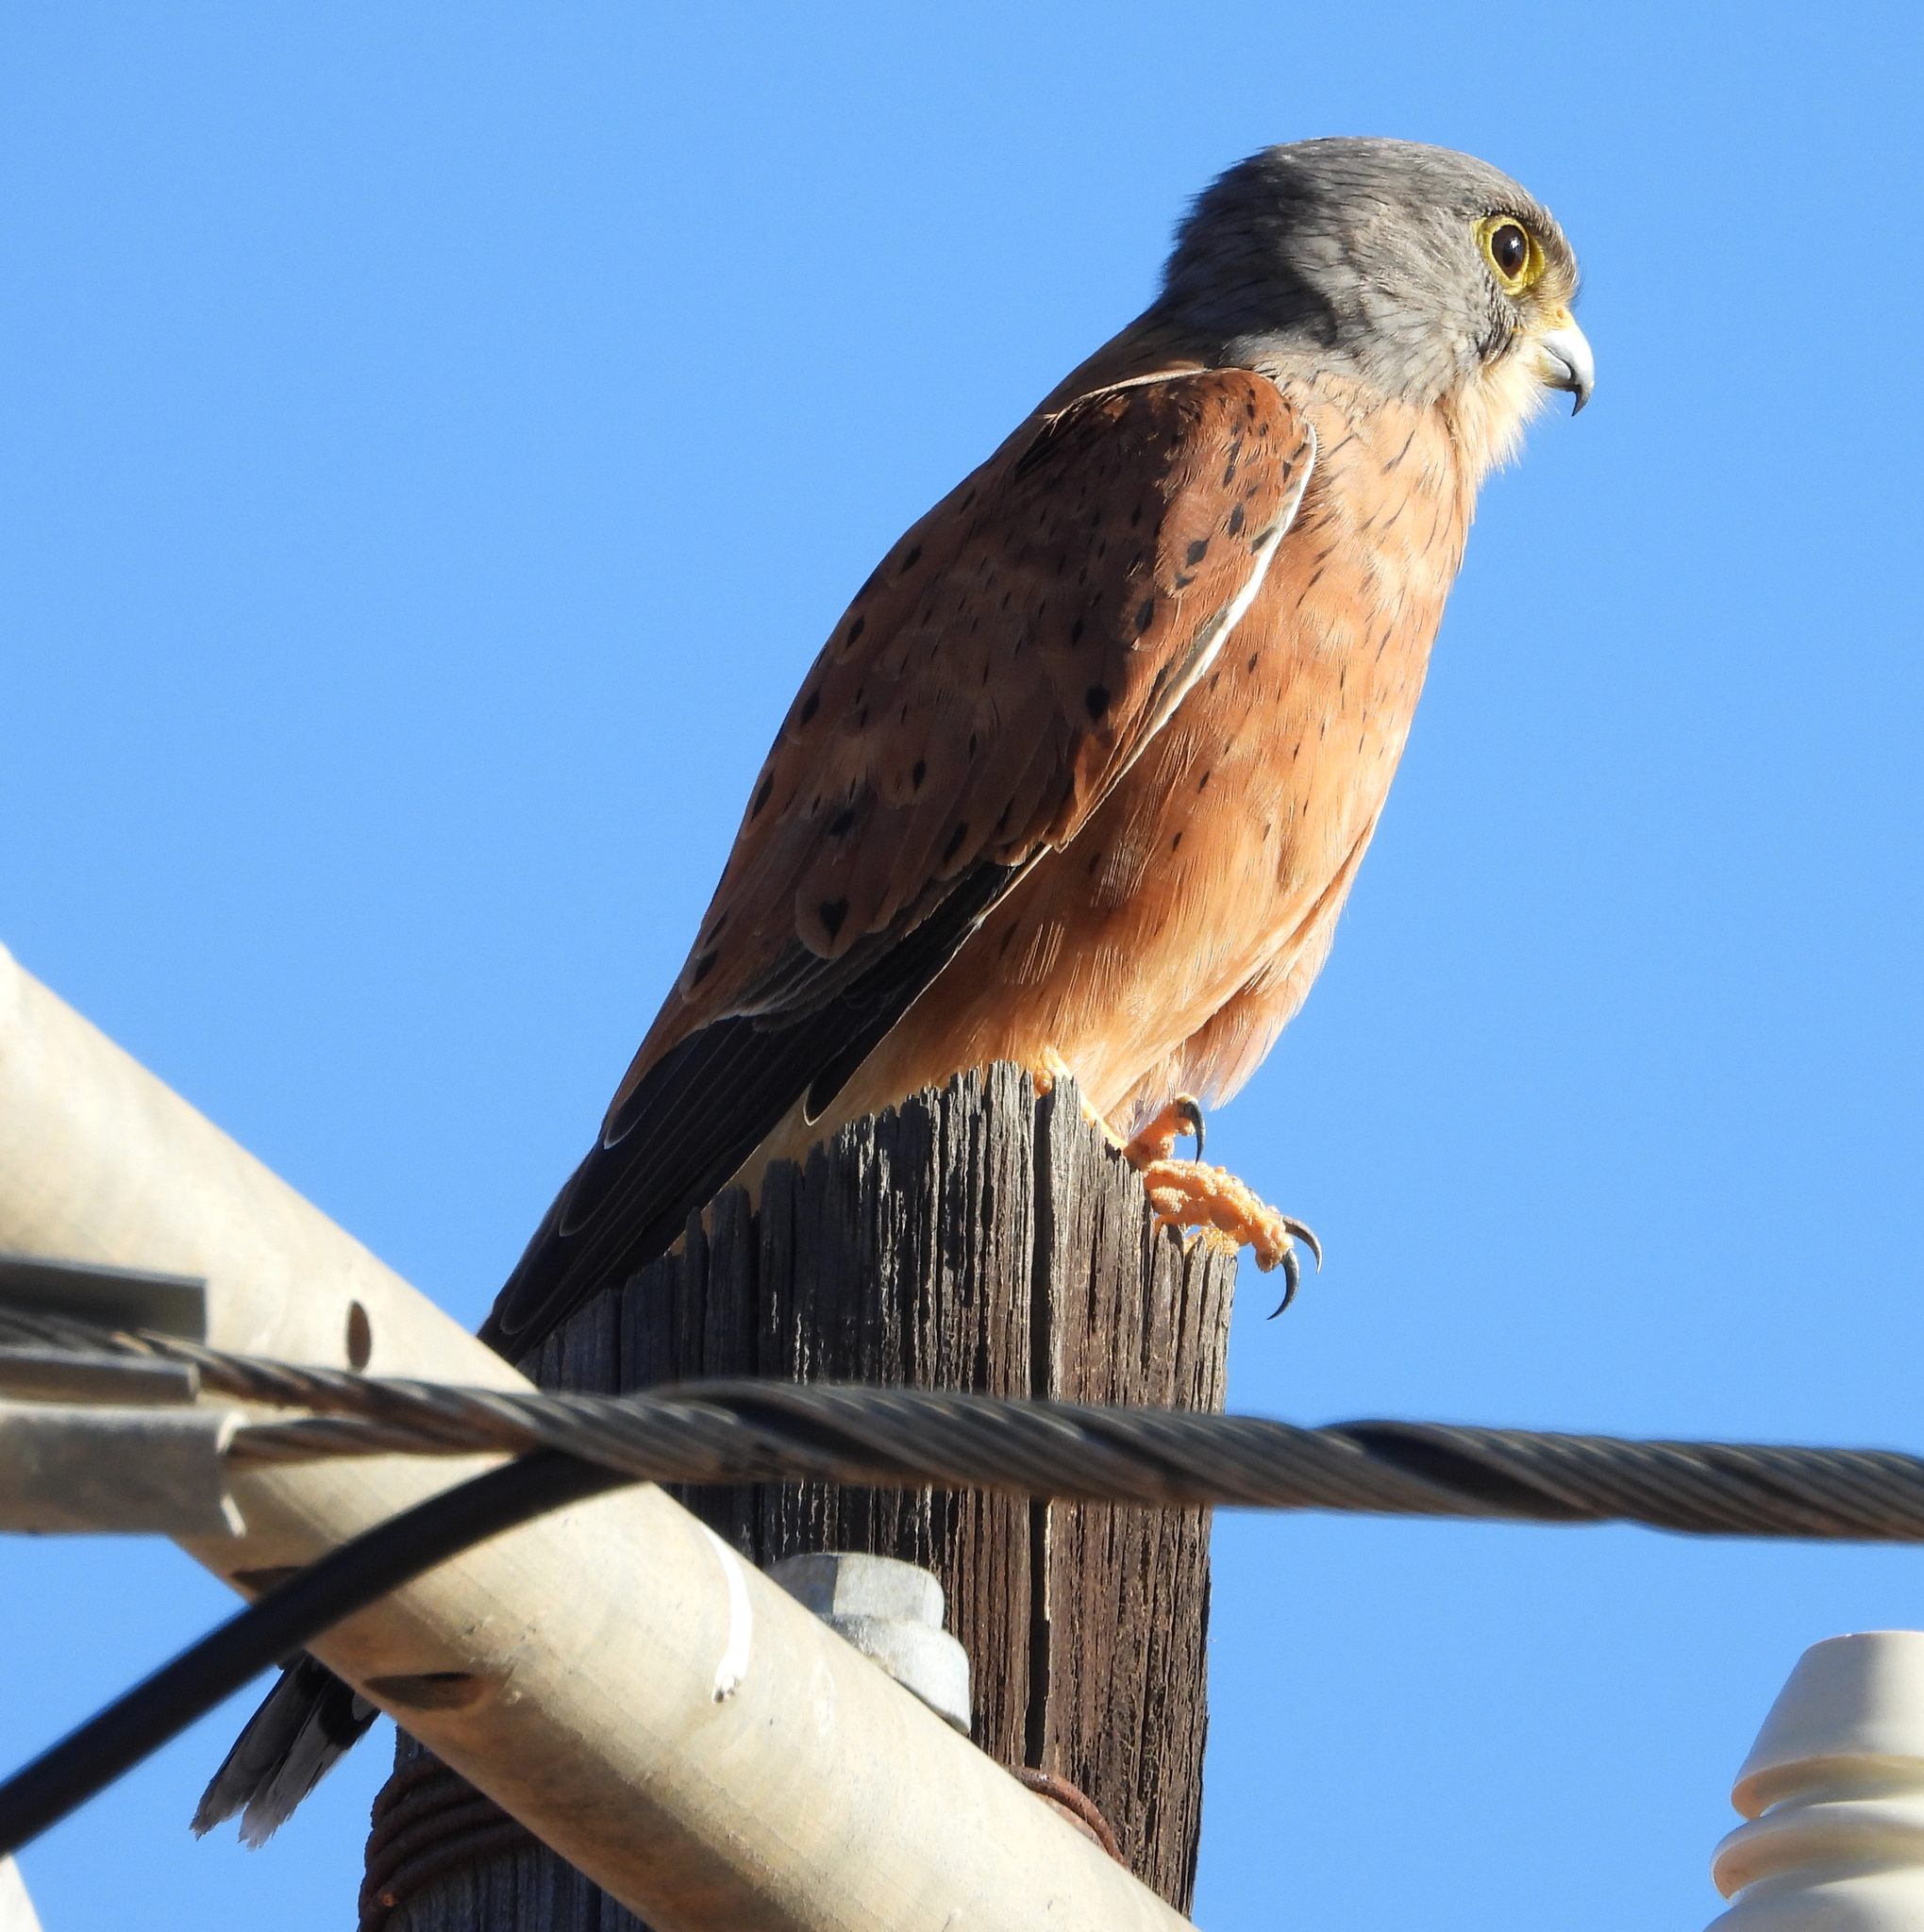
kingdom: Animalia
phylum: Chordata
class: Aves
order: Falconiformes
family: Falconidae
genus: Falco
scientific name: Falco rupicolus
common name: Rock kestrel
